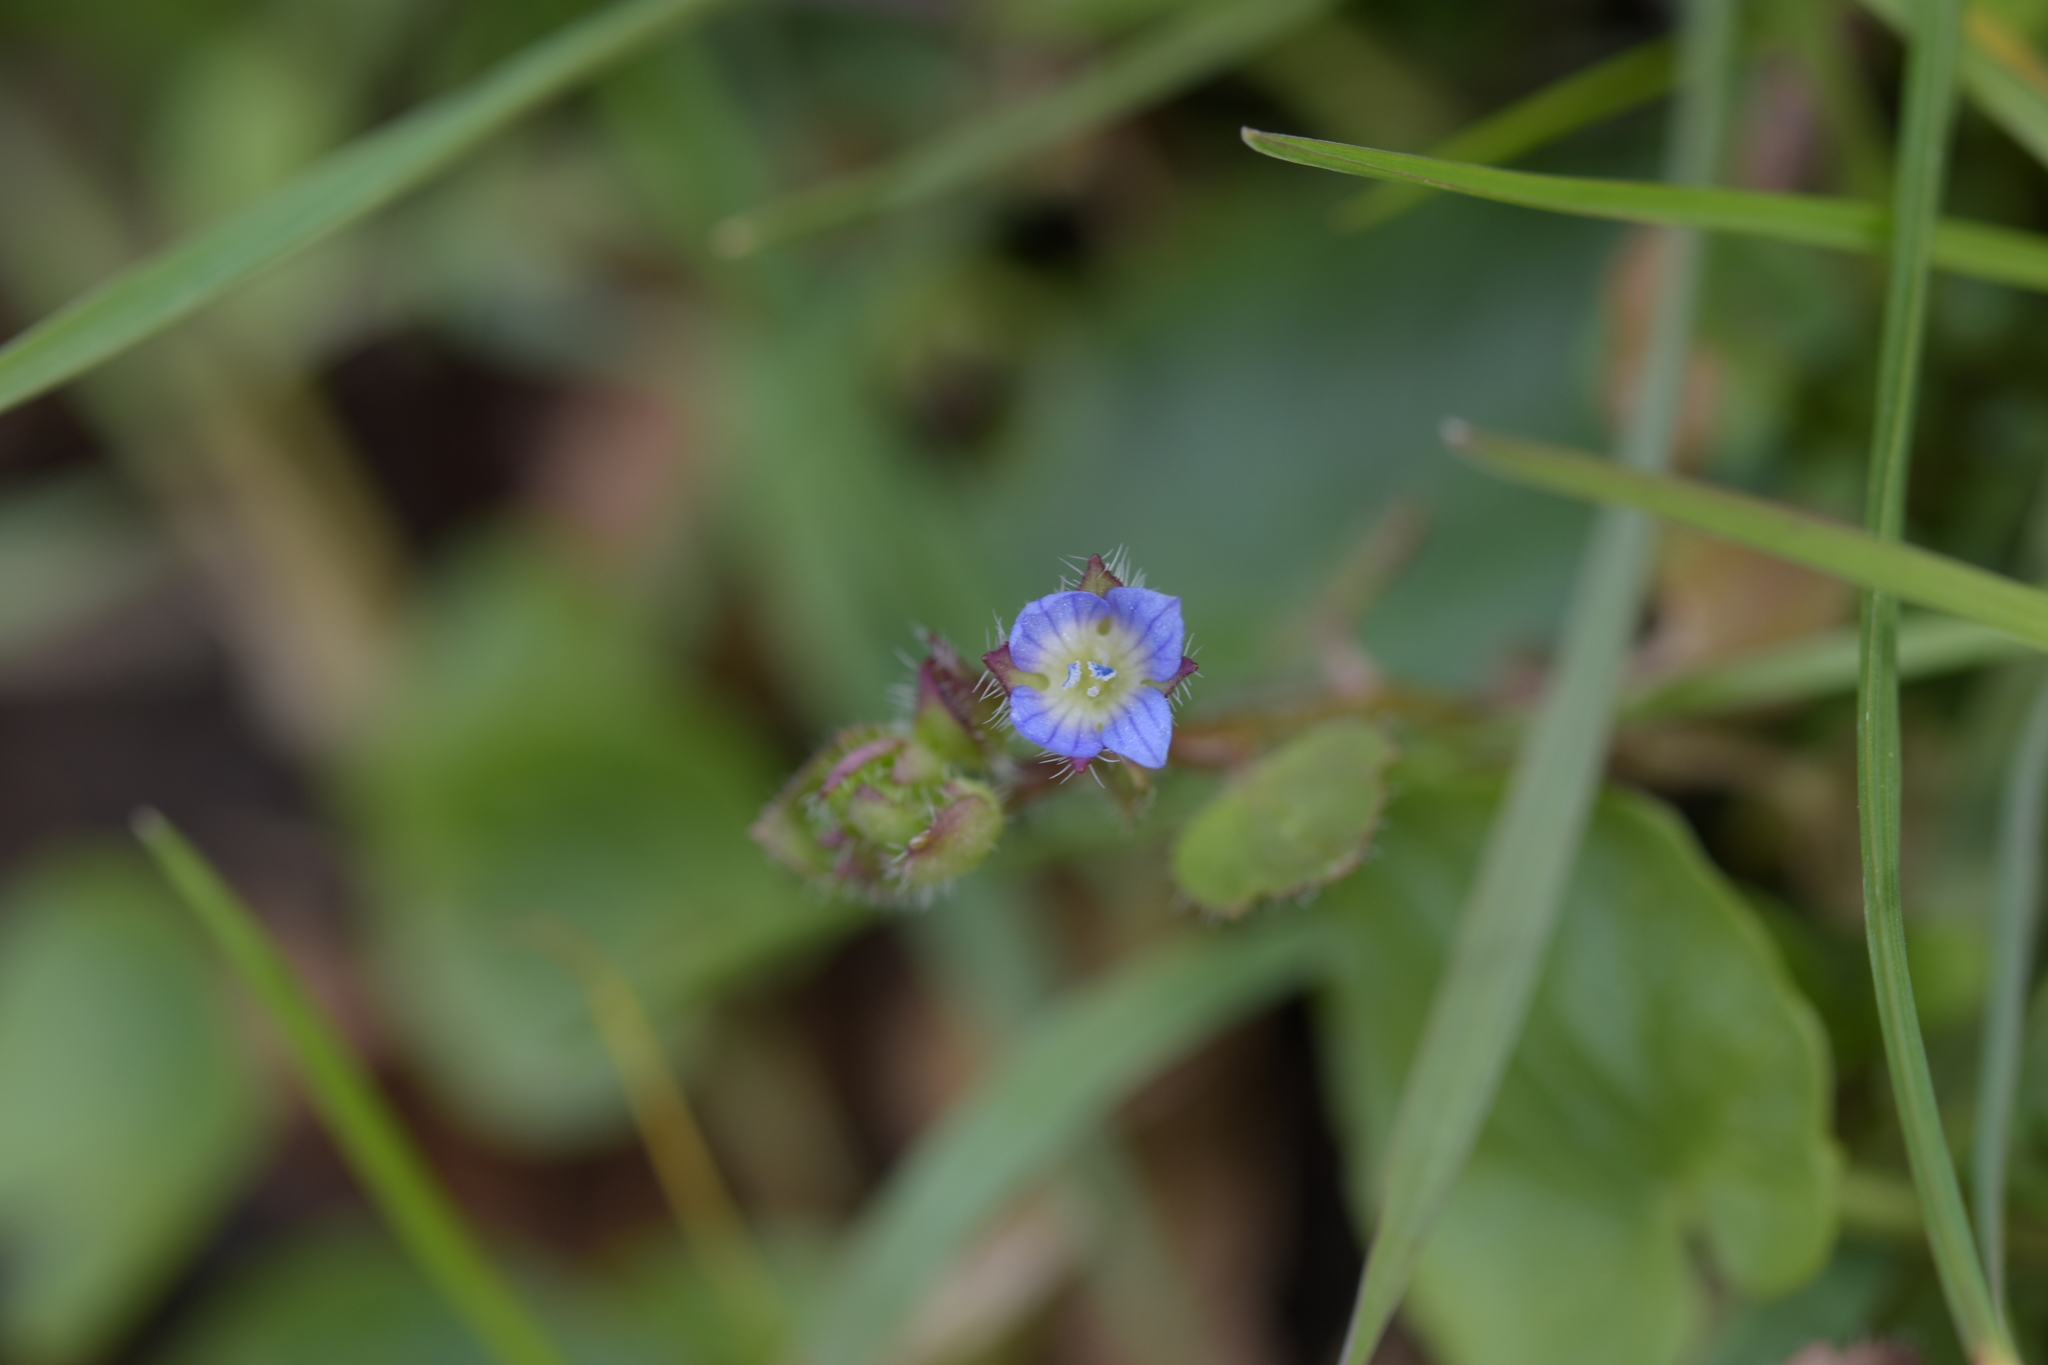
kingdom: Plantae
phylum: Tracheophyta
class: Magnoliopsida
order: Lamiales
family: Plantaginaceae
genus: Veronica
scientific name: Veronica hederifolia
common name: Ivy-leaved speedwell
